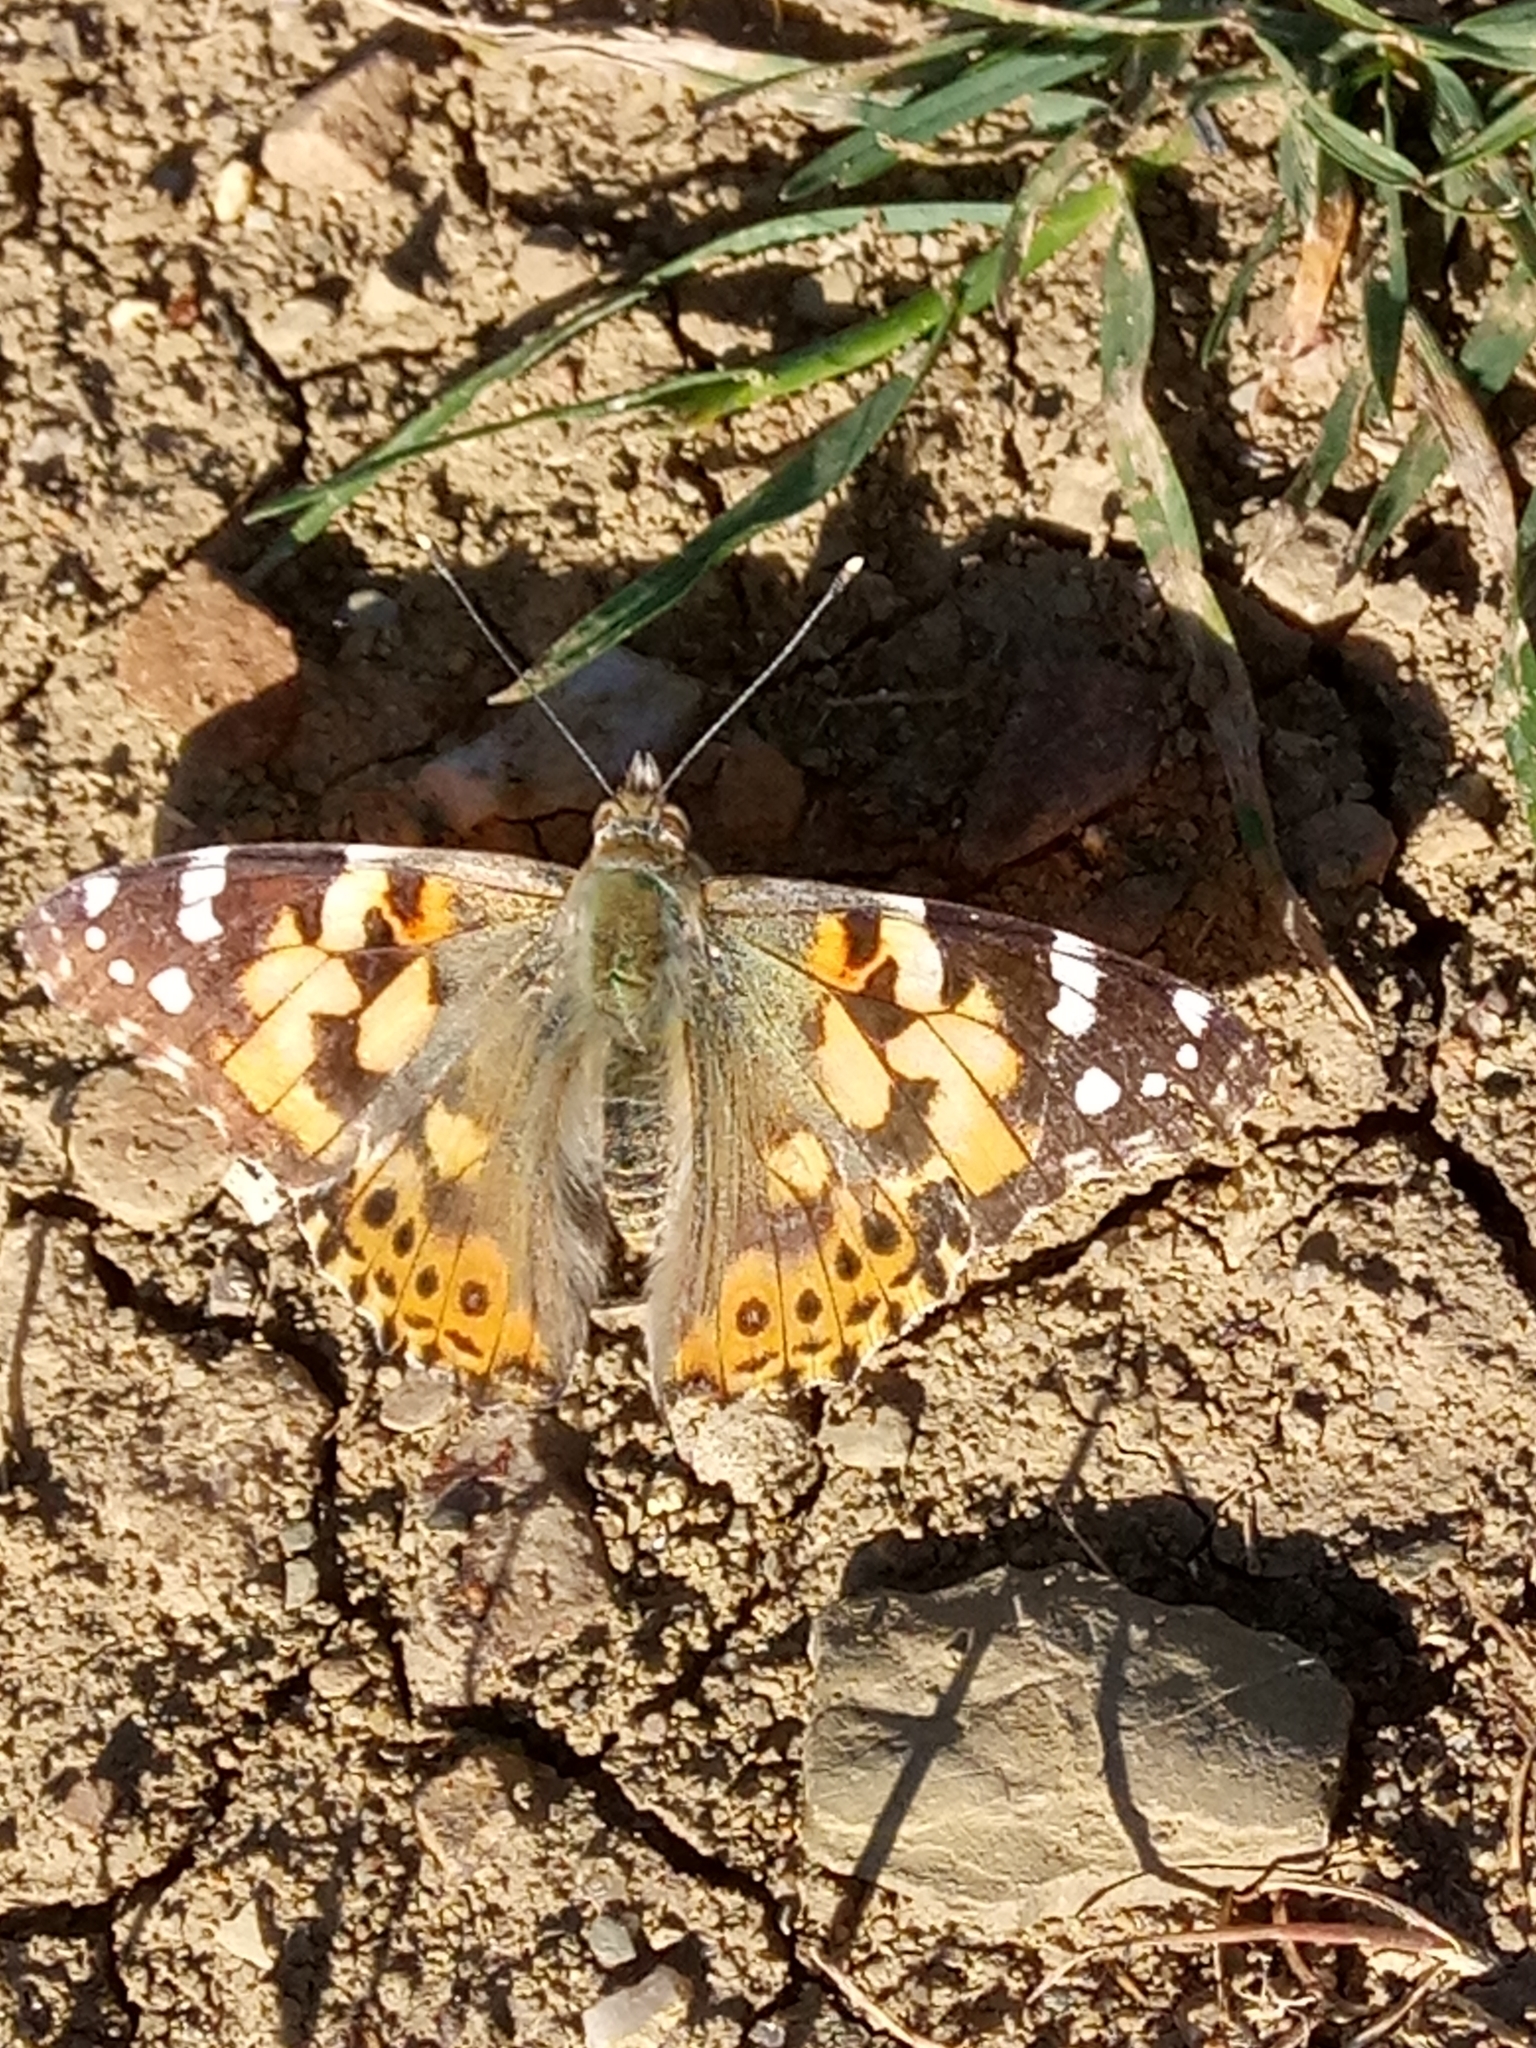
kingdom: Animalia
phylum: Arthropoda
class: Insecta
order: Lepidoptera
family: Nymphalidae
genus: Vanessa
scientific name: Vanessa cardui
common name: Painted lady
